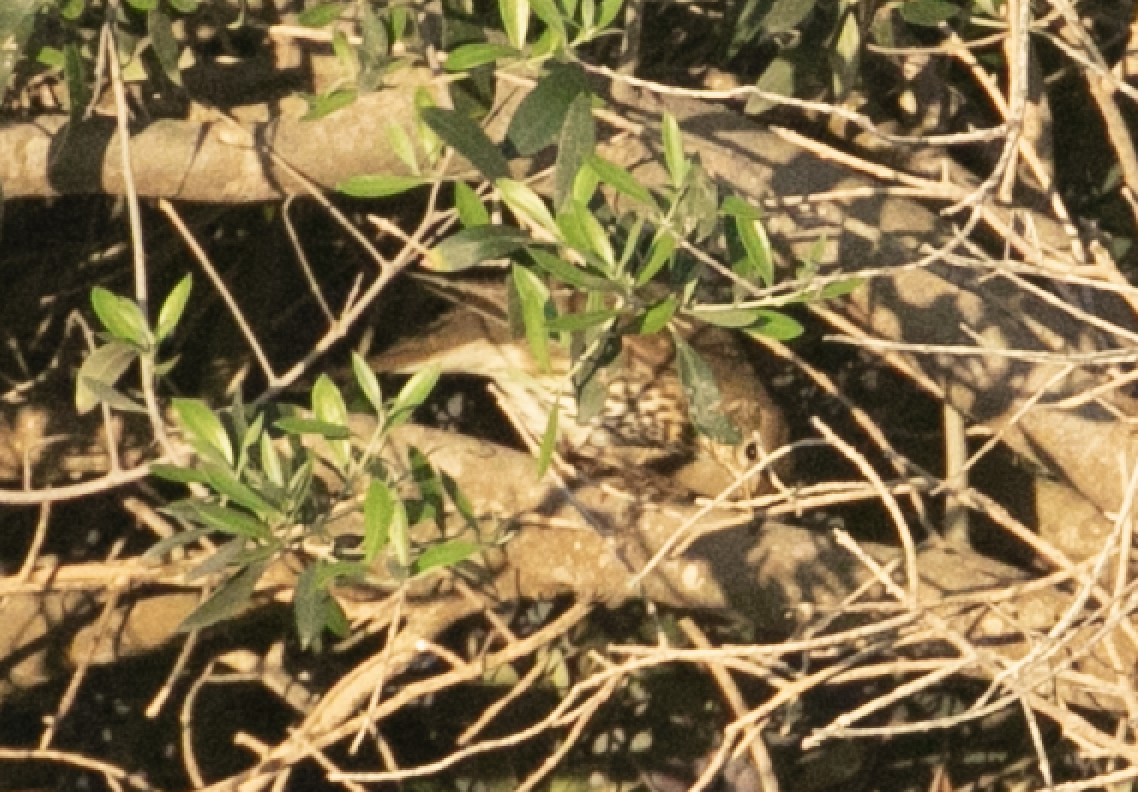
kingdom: Animalia
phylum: Chordata
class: Aves
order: Passeriformes
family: Turdidae
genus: Turdus
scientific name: Turdus philomelos
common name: Song thrush
